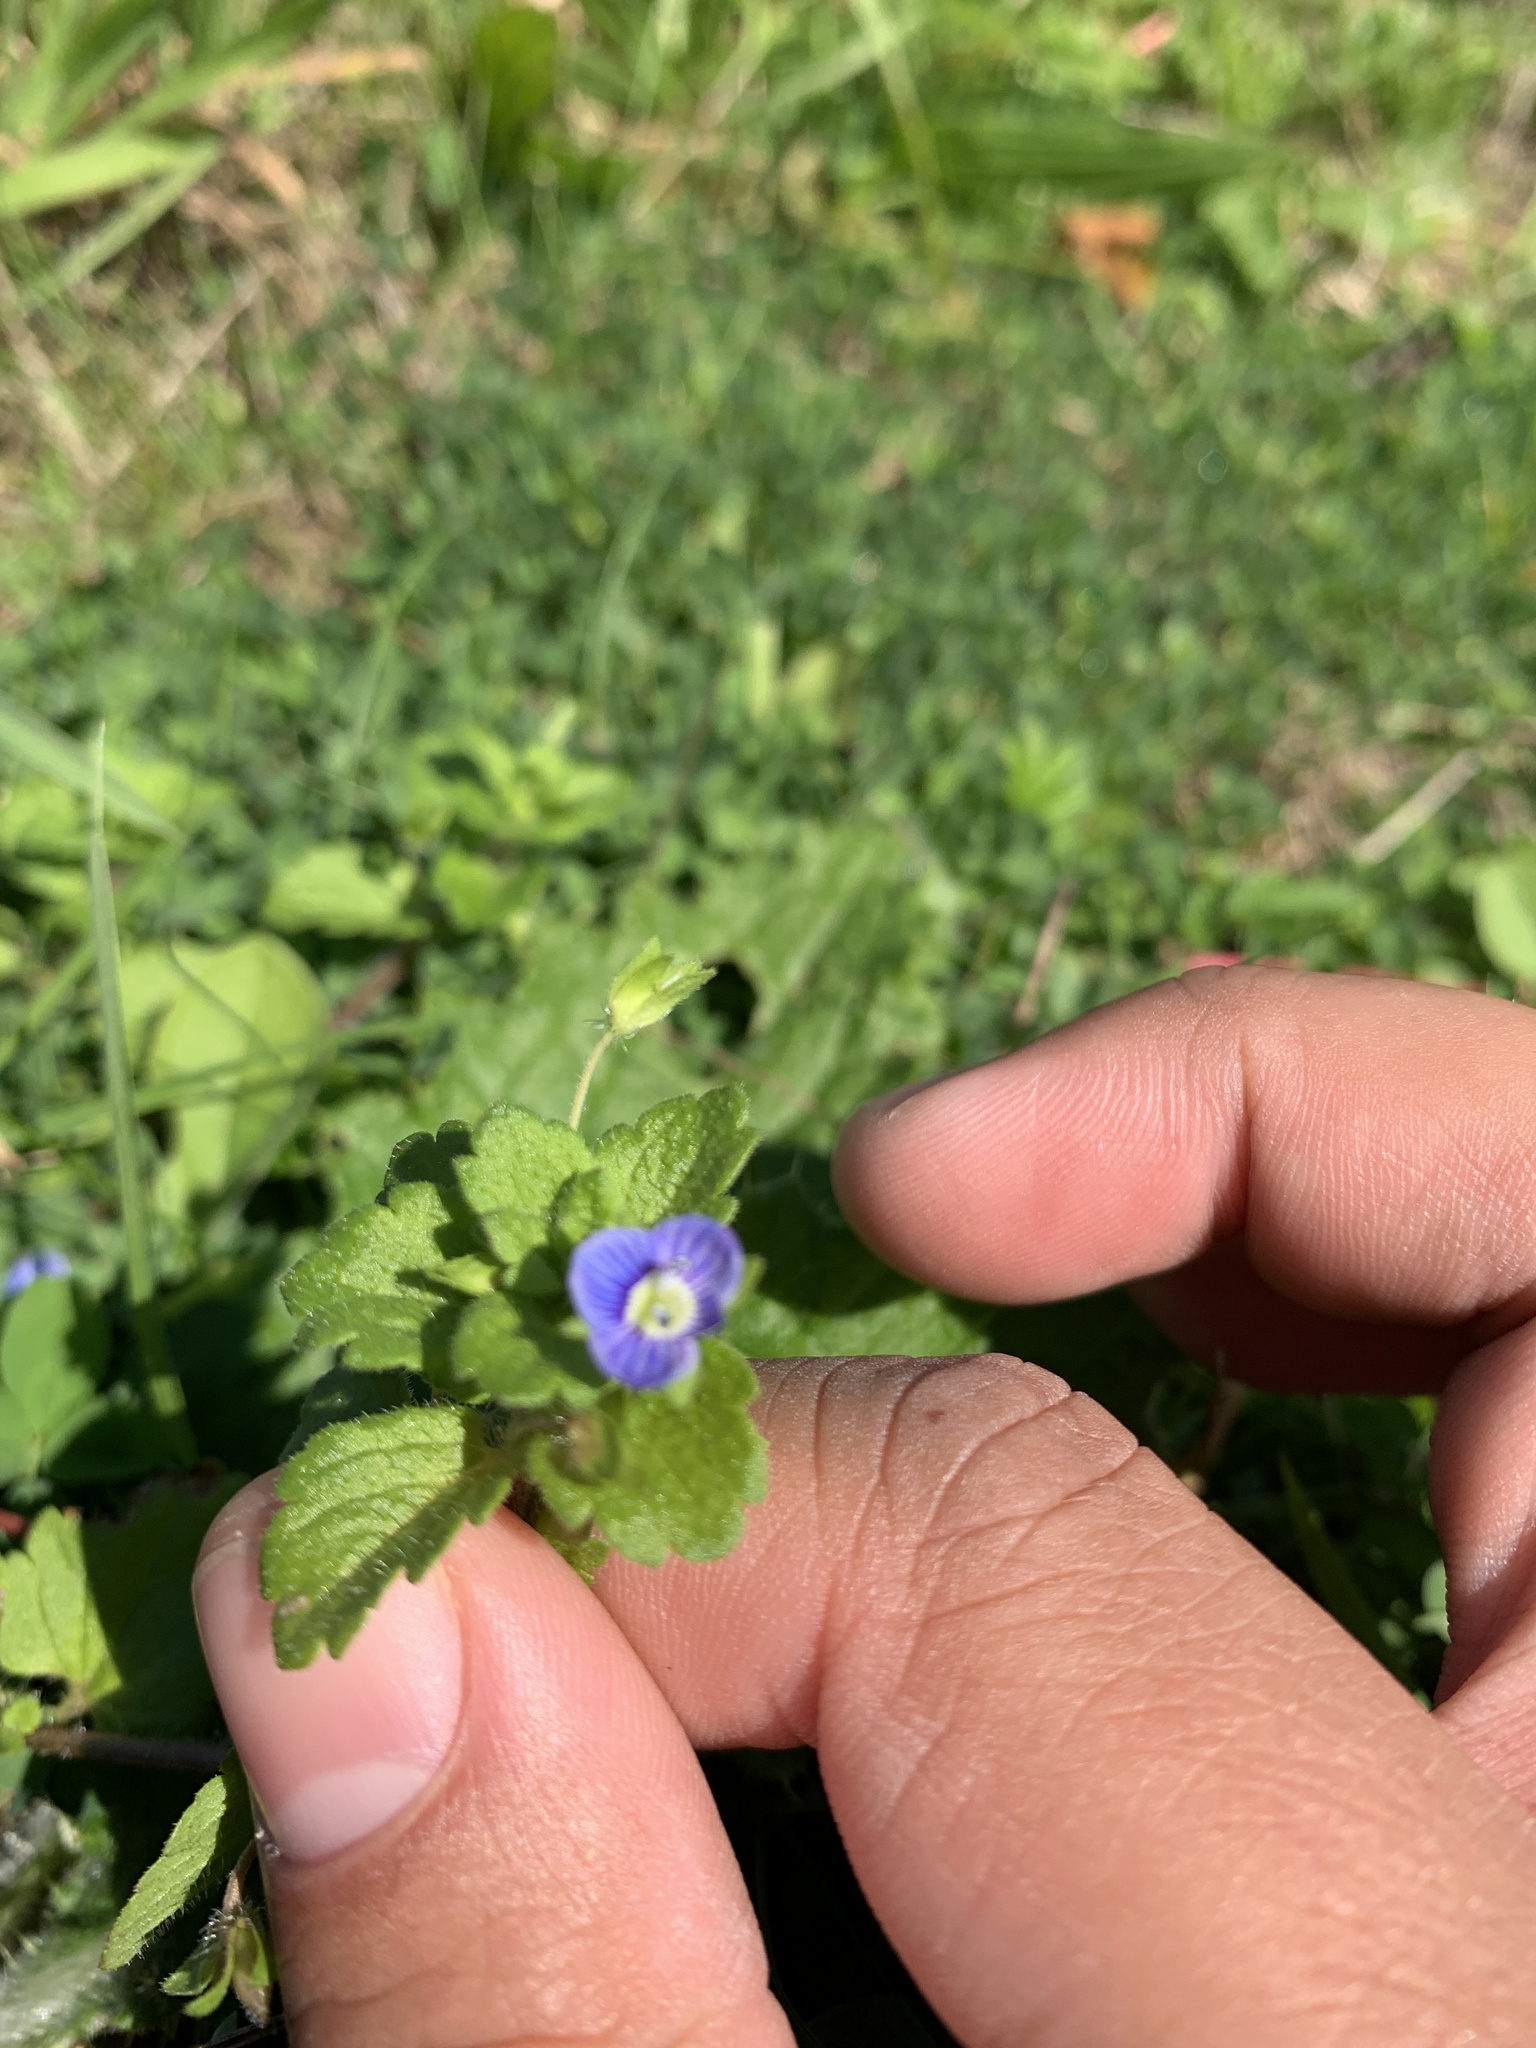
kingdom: Plantae
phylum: Tracheophyta
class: Magnoliopsida
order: Lamiales
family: Plantaginaceae
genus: Veronica
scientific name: Veronica persica
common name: Common field-speedwell
